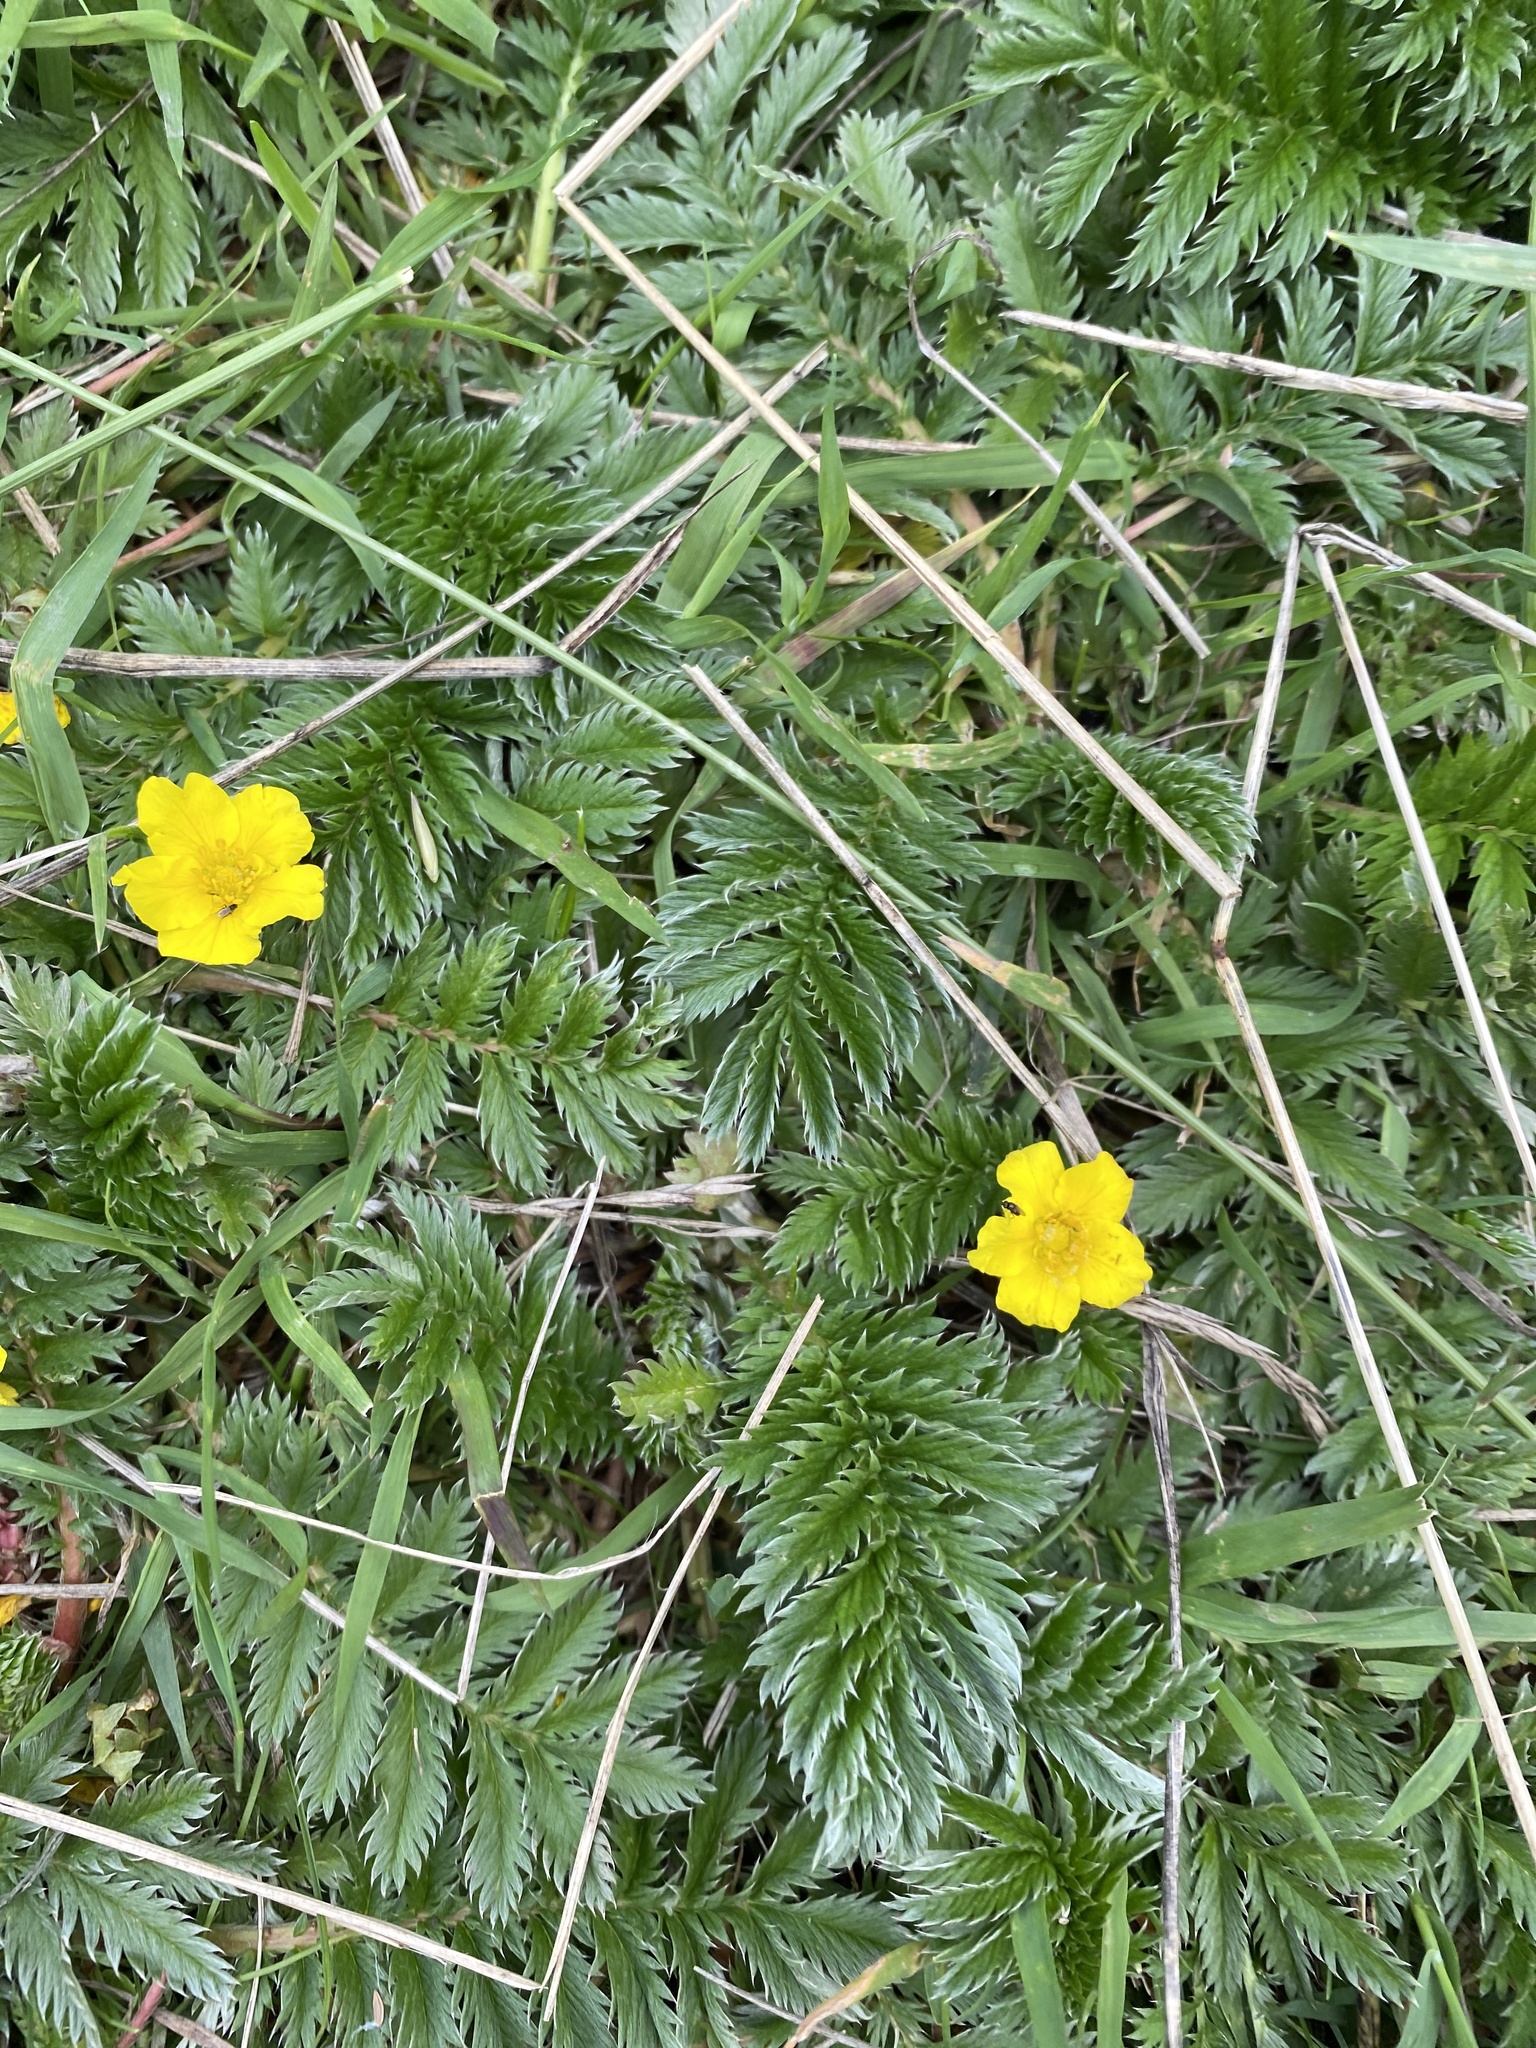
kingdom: Plantae
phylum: Tracheophyta
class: Magnoliopsida
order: Rosales
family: Rosaceae
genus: Argentina
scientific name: Argentina anserina
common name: Common silverweed
